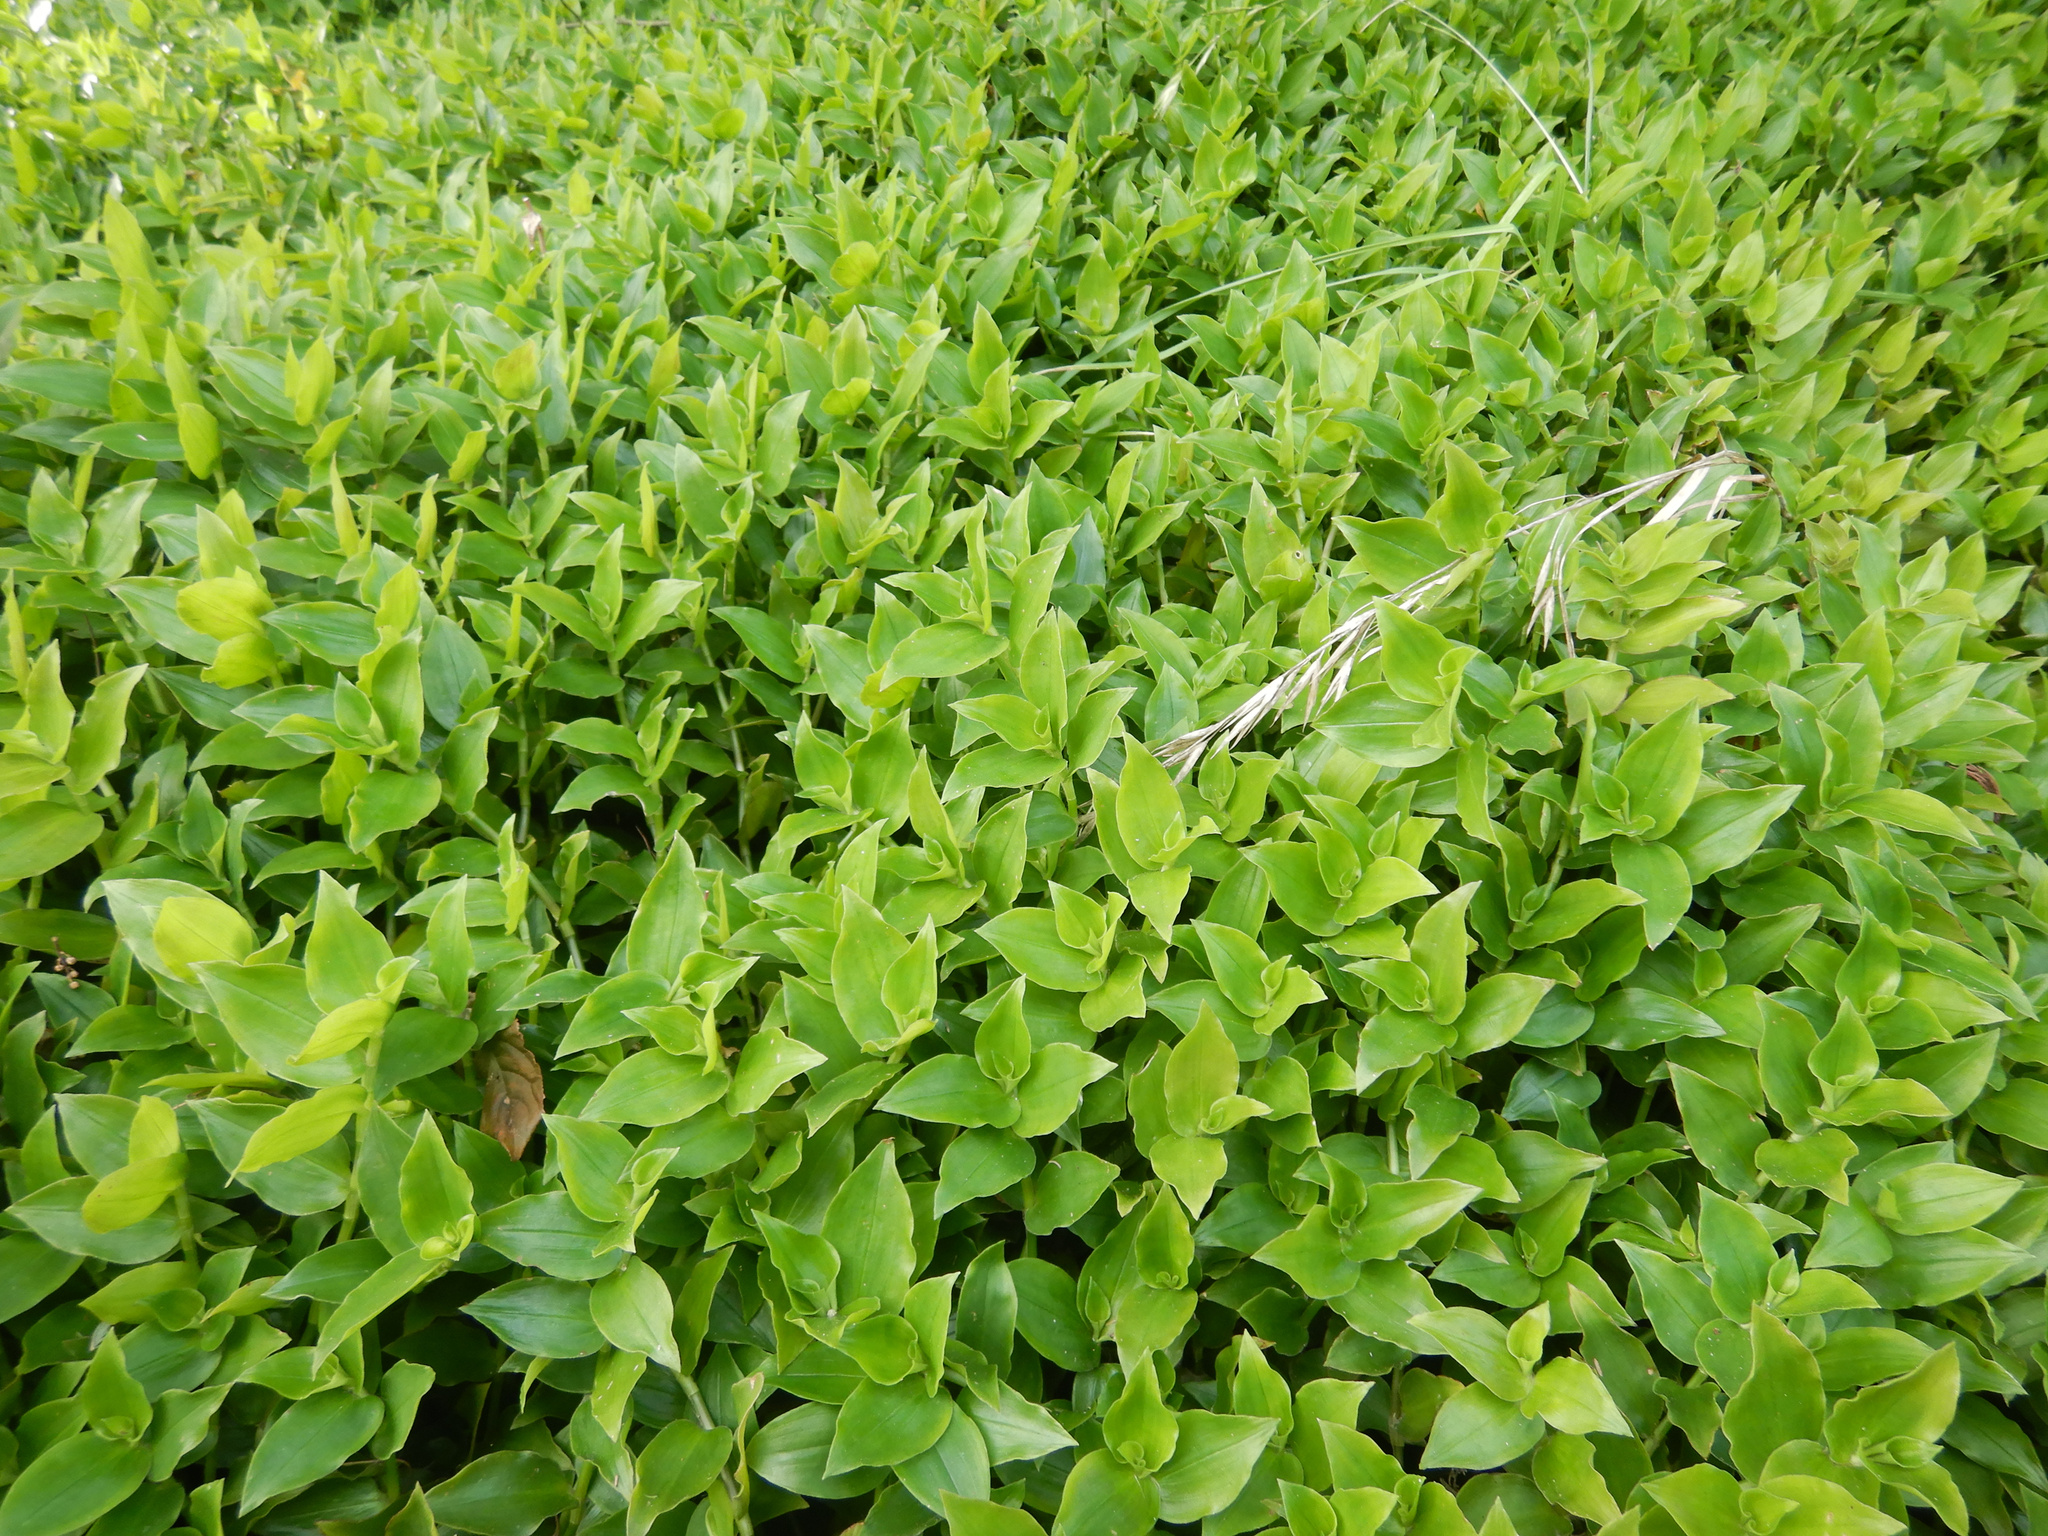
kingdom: Plantae
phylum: Tracheophyta
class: Liliopsida
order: Commelinales
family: Commelinaceae
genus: Tradescantia
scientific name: Tradescantia fluminensis
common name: Wandering-jew
